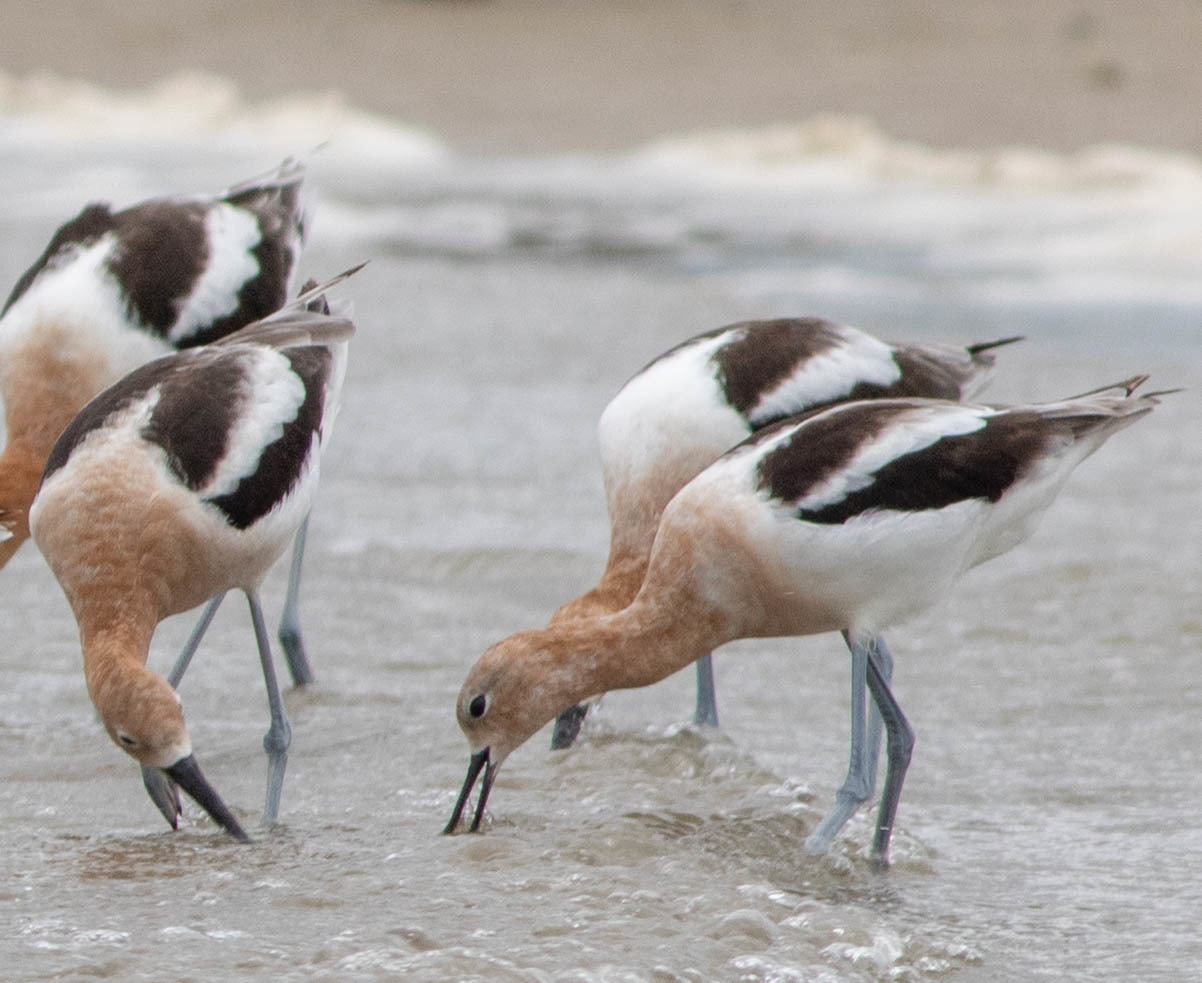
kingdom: Animalia
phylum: Chordata
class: Aves
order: Charadriiformes
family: Recurvirostridae
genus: Recurvirostra
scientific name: Recurvirostra americana
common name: American avocet
